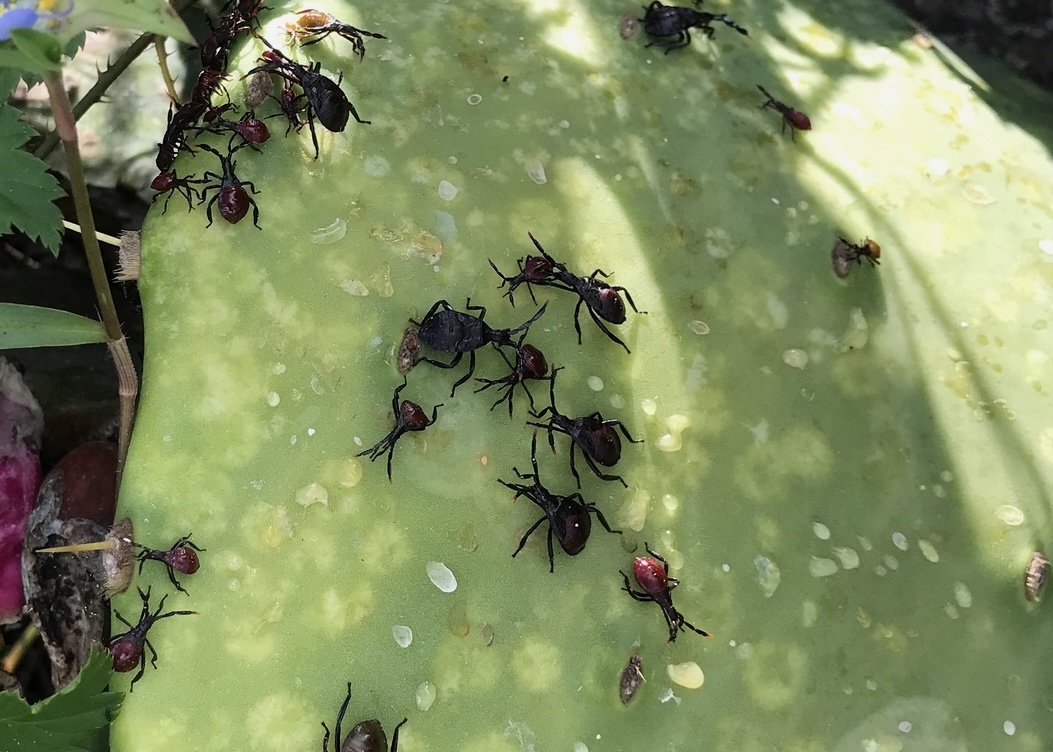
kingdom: Animalia
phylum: Arthropoda
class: Insecta
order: Hemiptera
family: Coreidae
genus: Chelinidea
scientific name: Chelinidea vittiger
